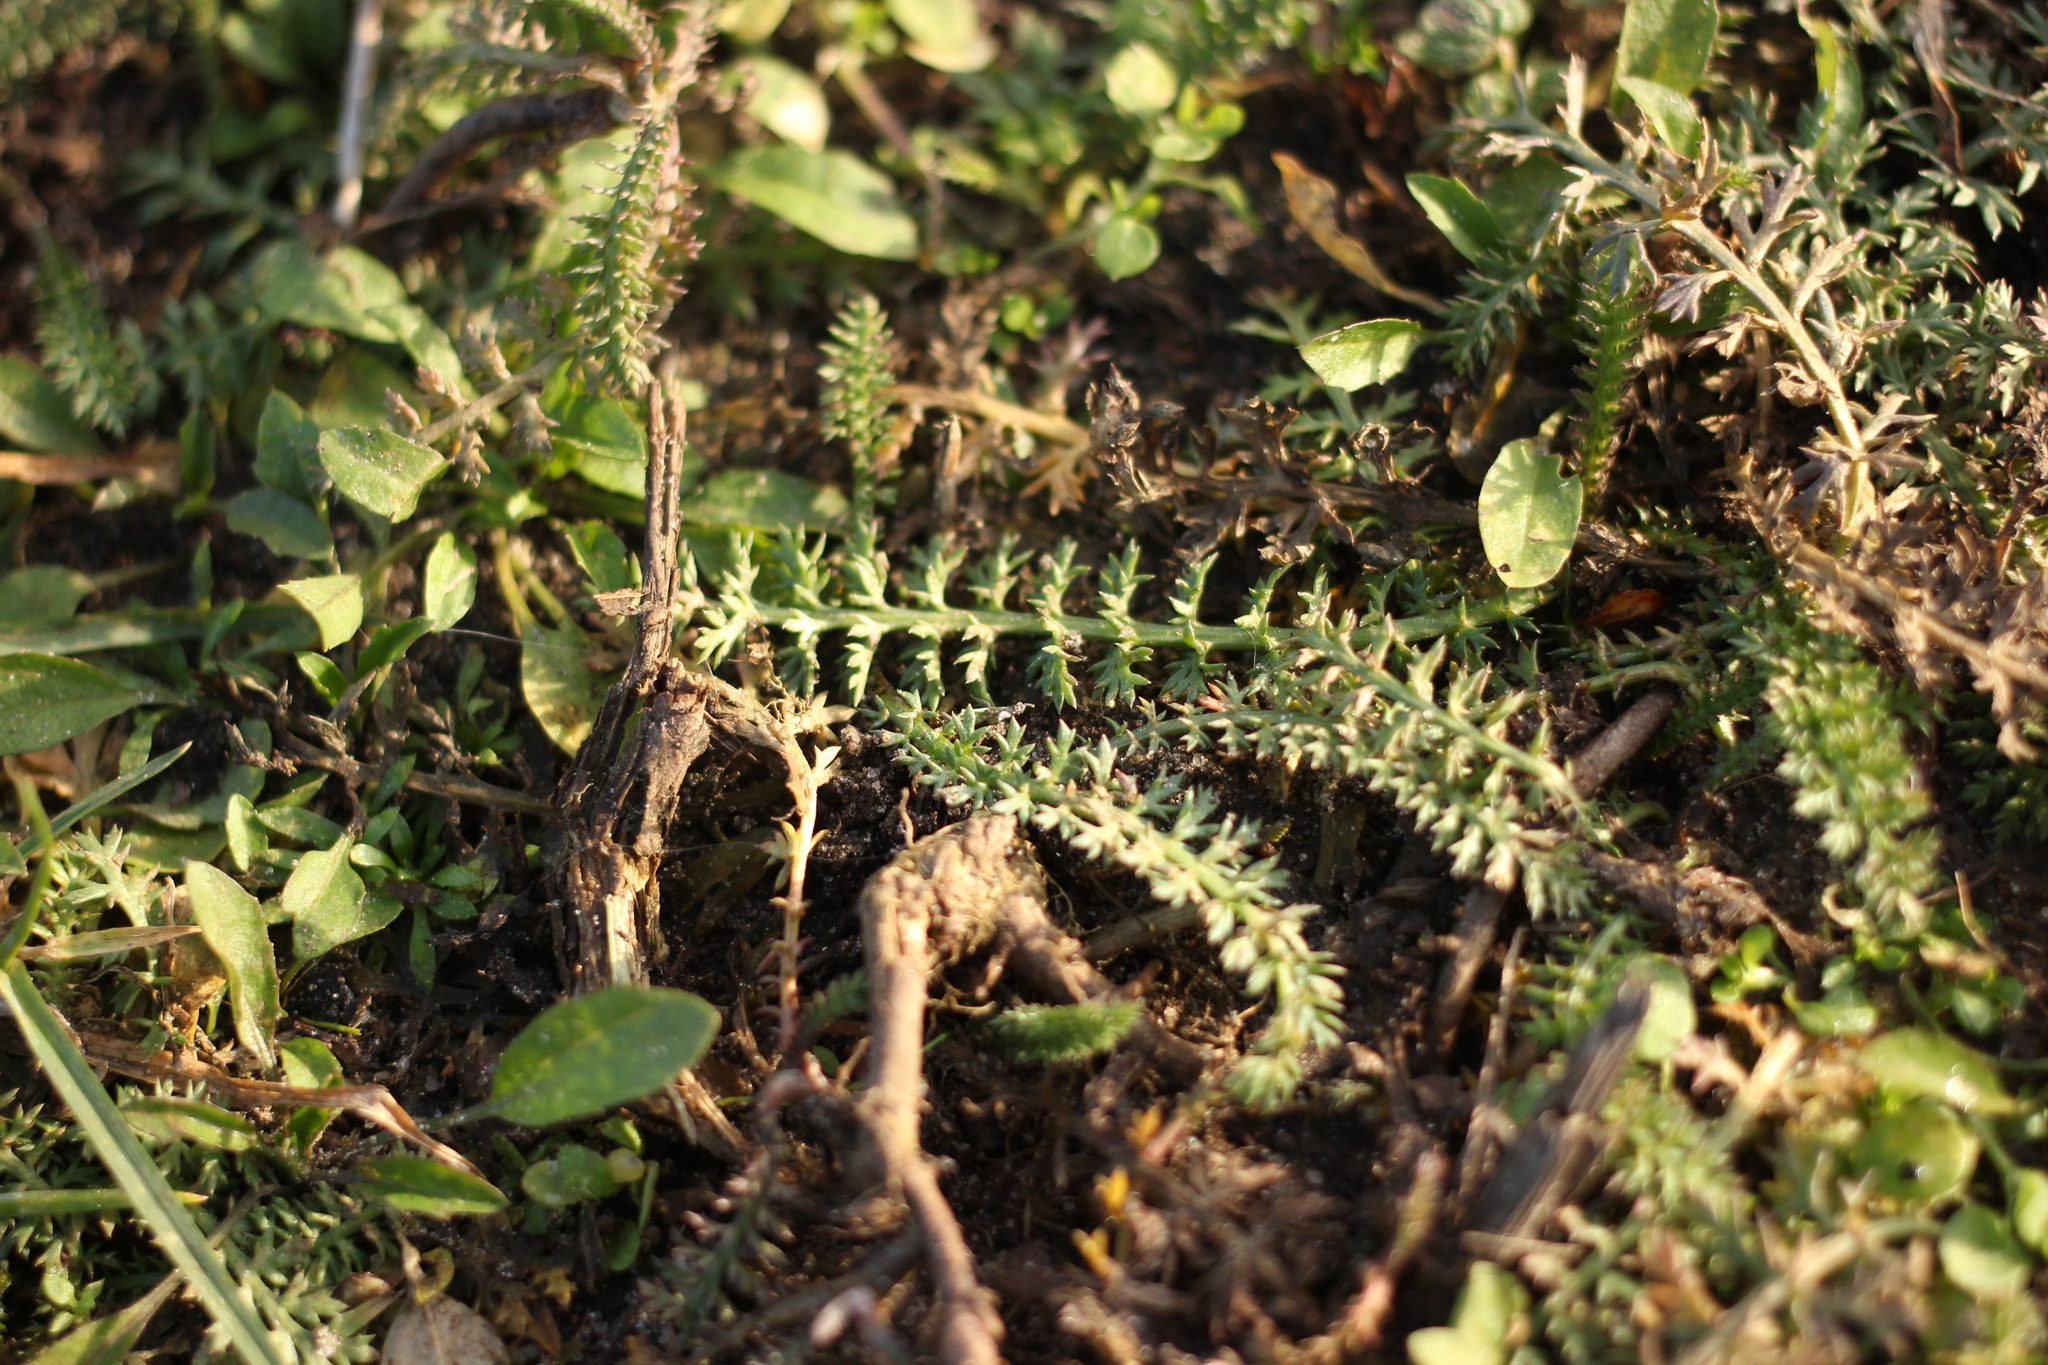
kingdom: Plantae
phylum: Tracheophyta
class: Magnoliopsida
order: Asterales
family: Asteraceae
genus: Achillea
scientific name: Achillea millefolium
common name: Yarrow
